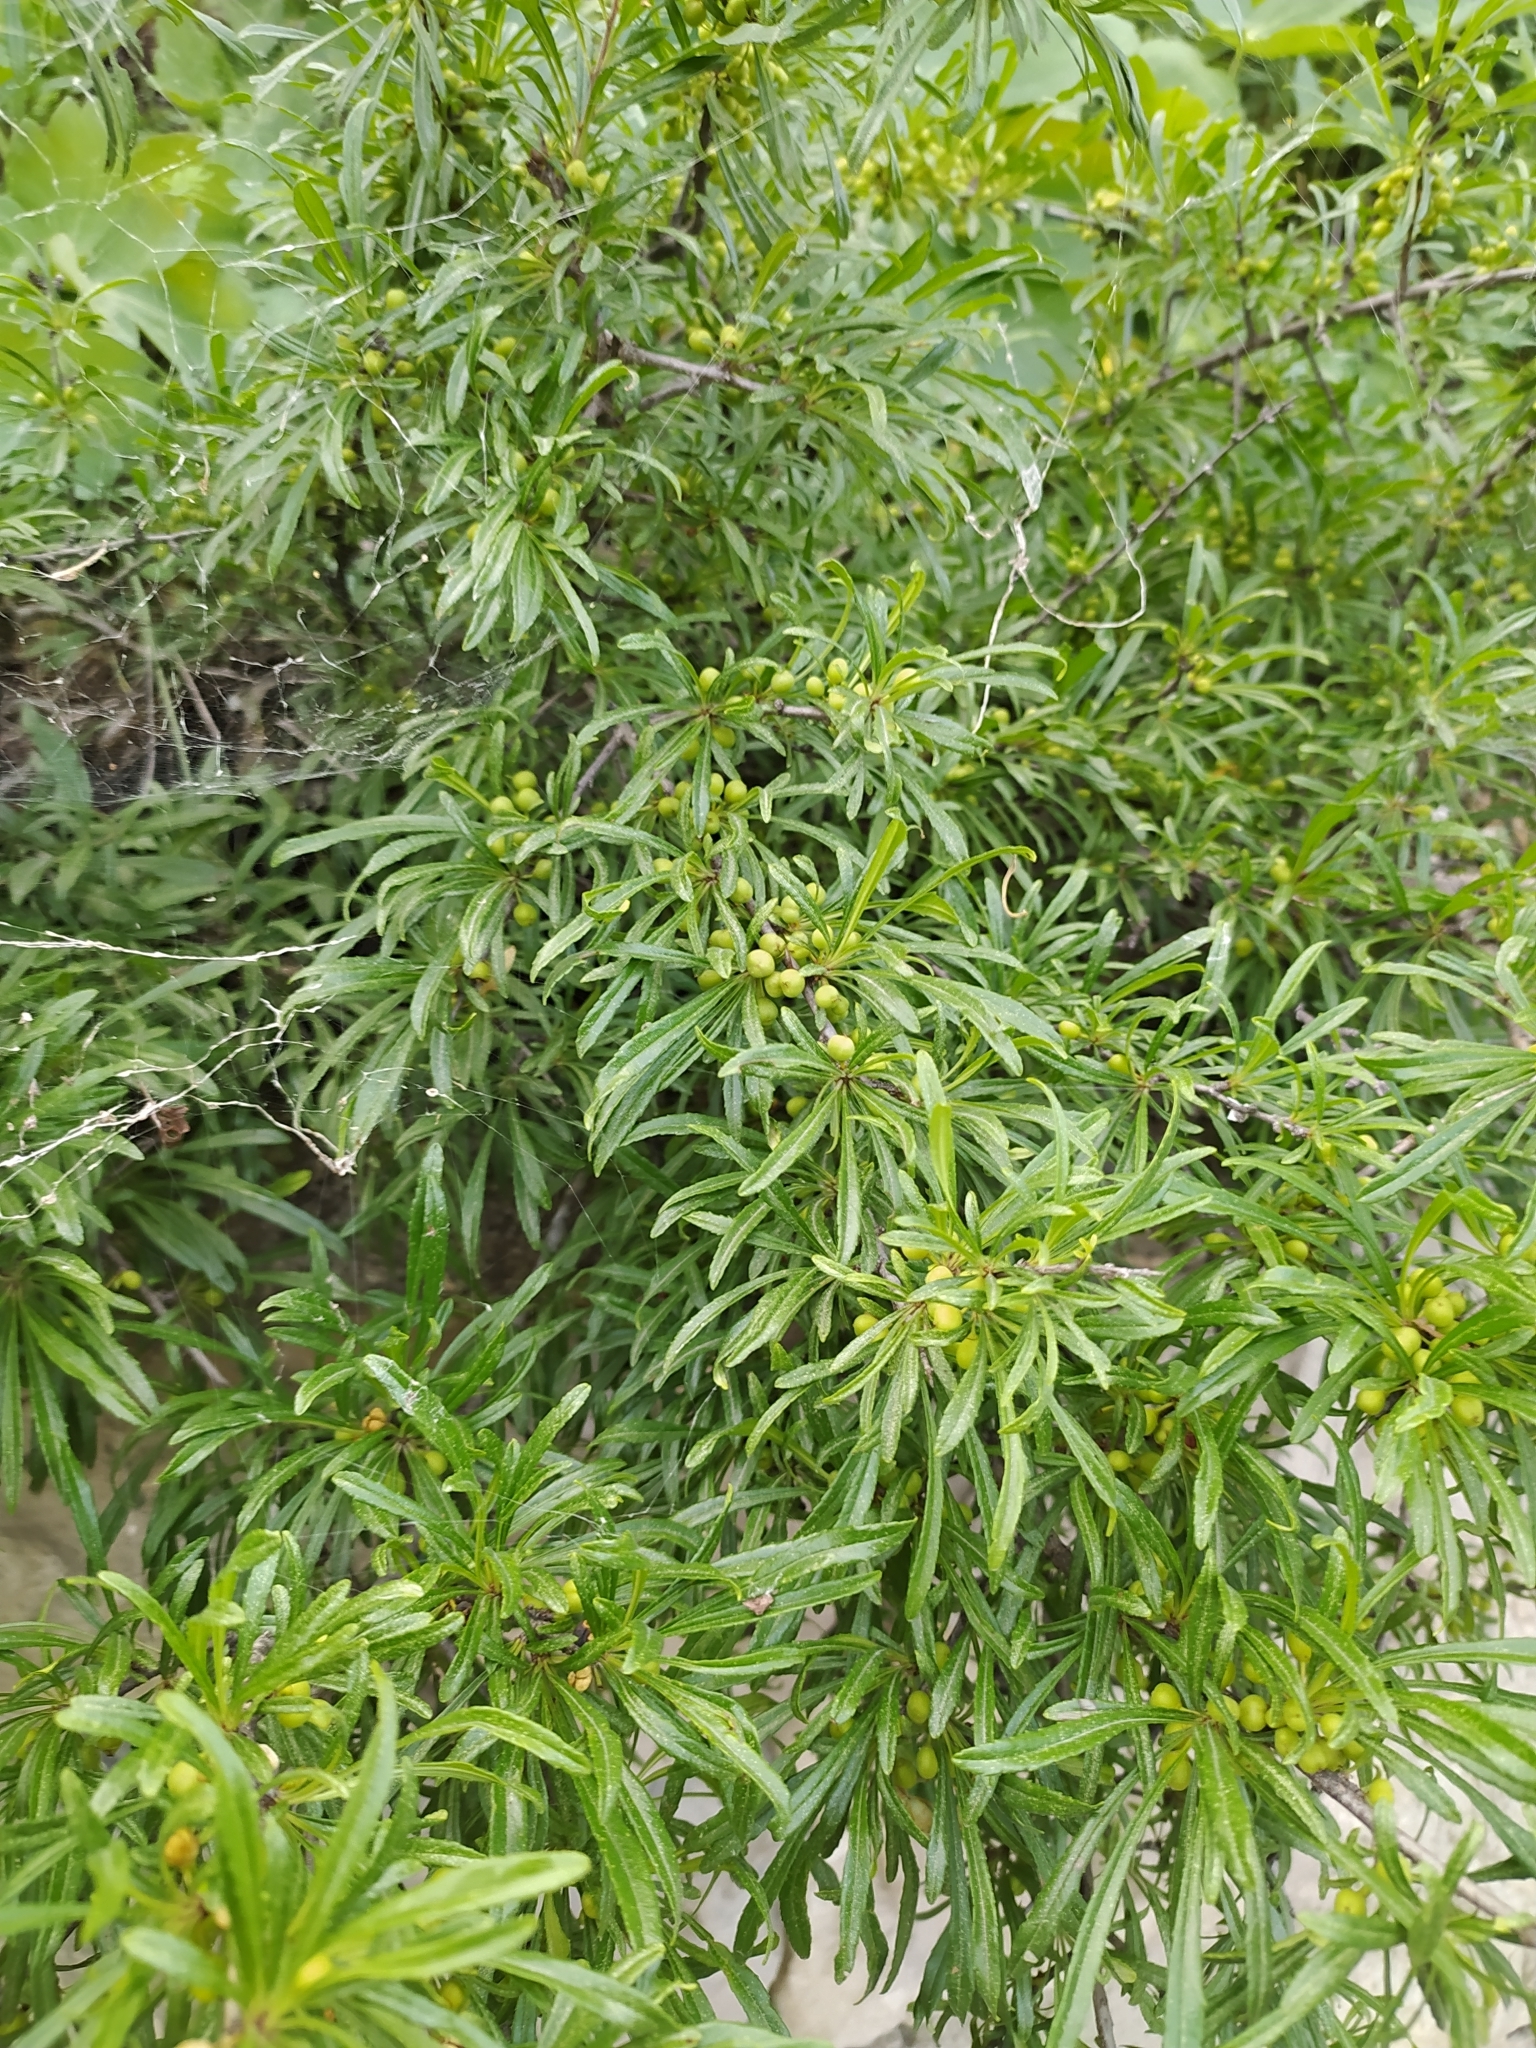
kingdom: Plantae
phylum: Tracheophyta
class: Magnoliopsida
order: Rosales
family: Rhamnaceae
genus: Rhamnus
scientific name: Rhamnus erythroxyloides
